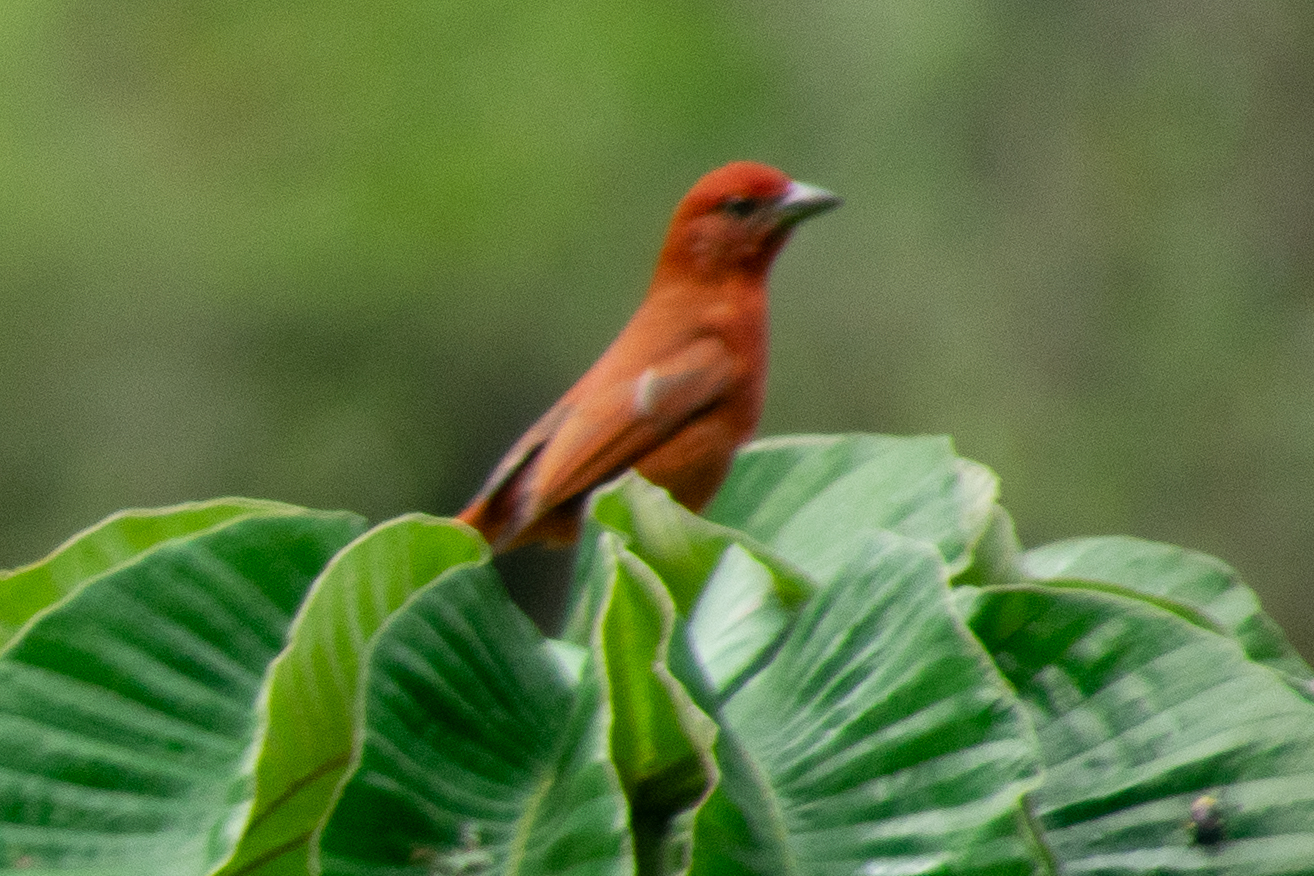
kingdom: Animalia
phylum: Chordata
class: Aves
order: Passeriformes
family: Cardinalidae
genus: Piranga
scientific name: Piranga flava
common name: Red tanager
